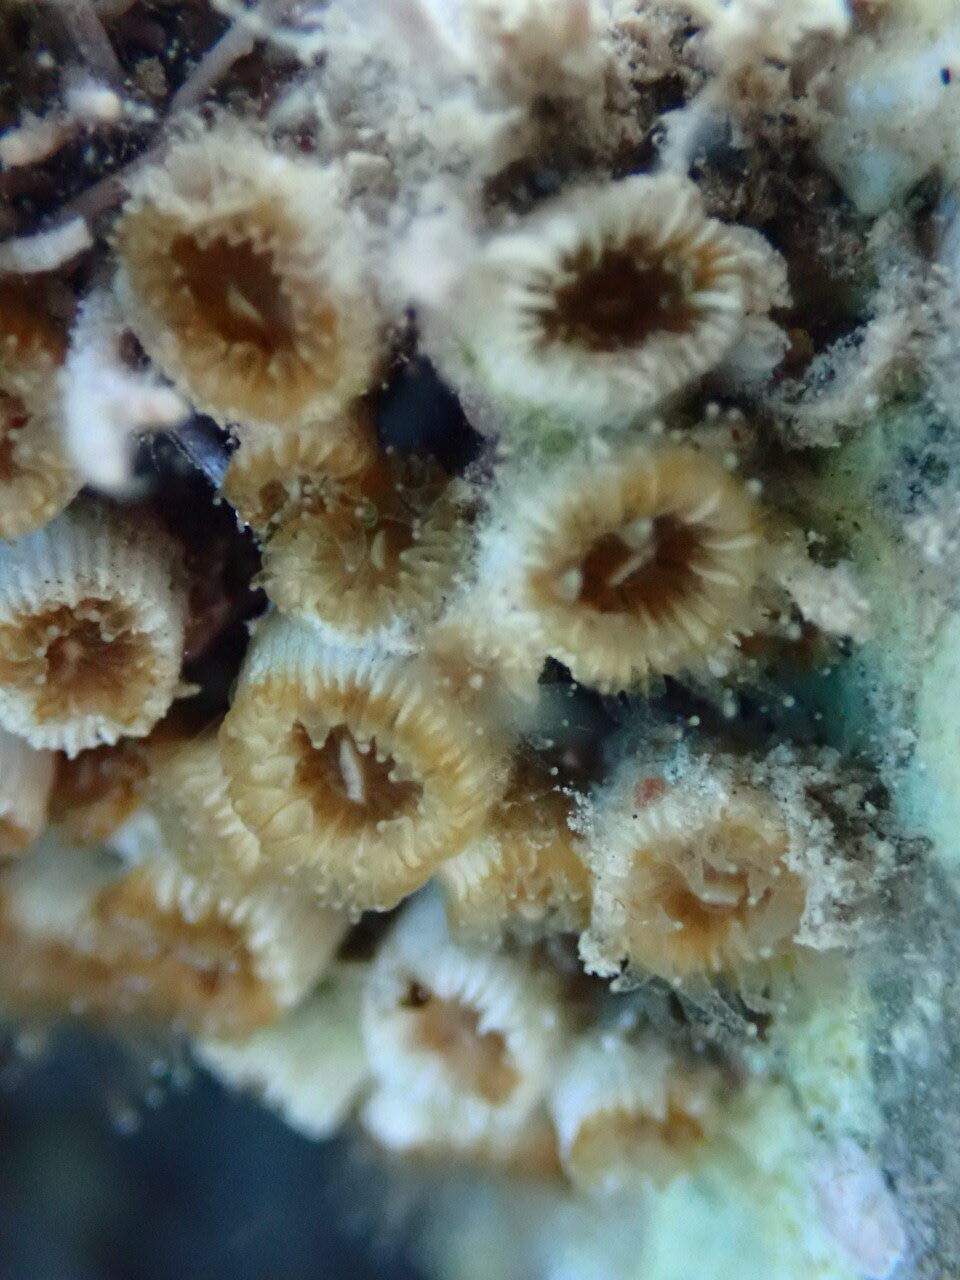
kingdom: Animalia
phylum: Cnidaria
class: Anthozoa
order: Scleractinia
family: Cladocoridae
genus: Cladocora
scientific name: Cladocora caespitosa
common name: Cladocora
